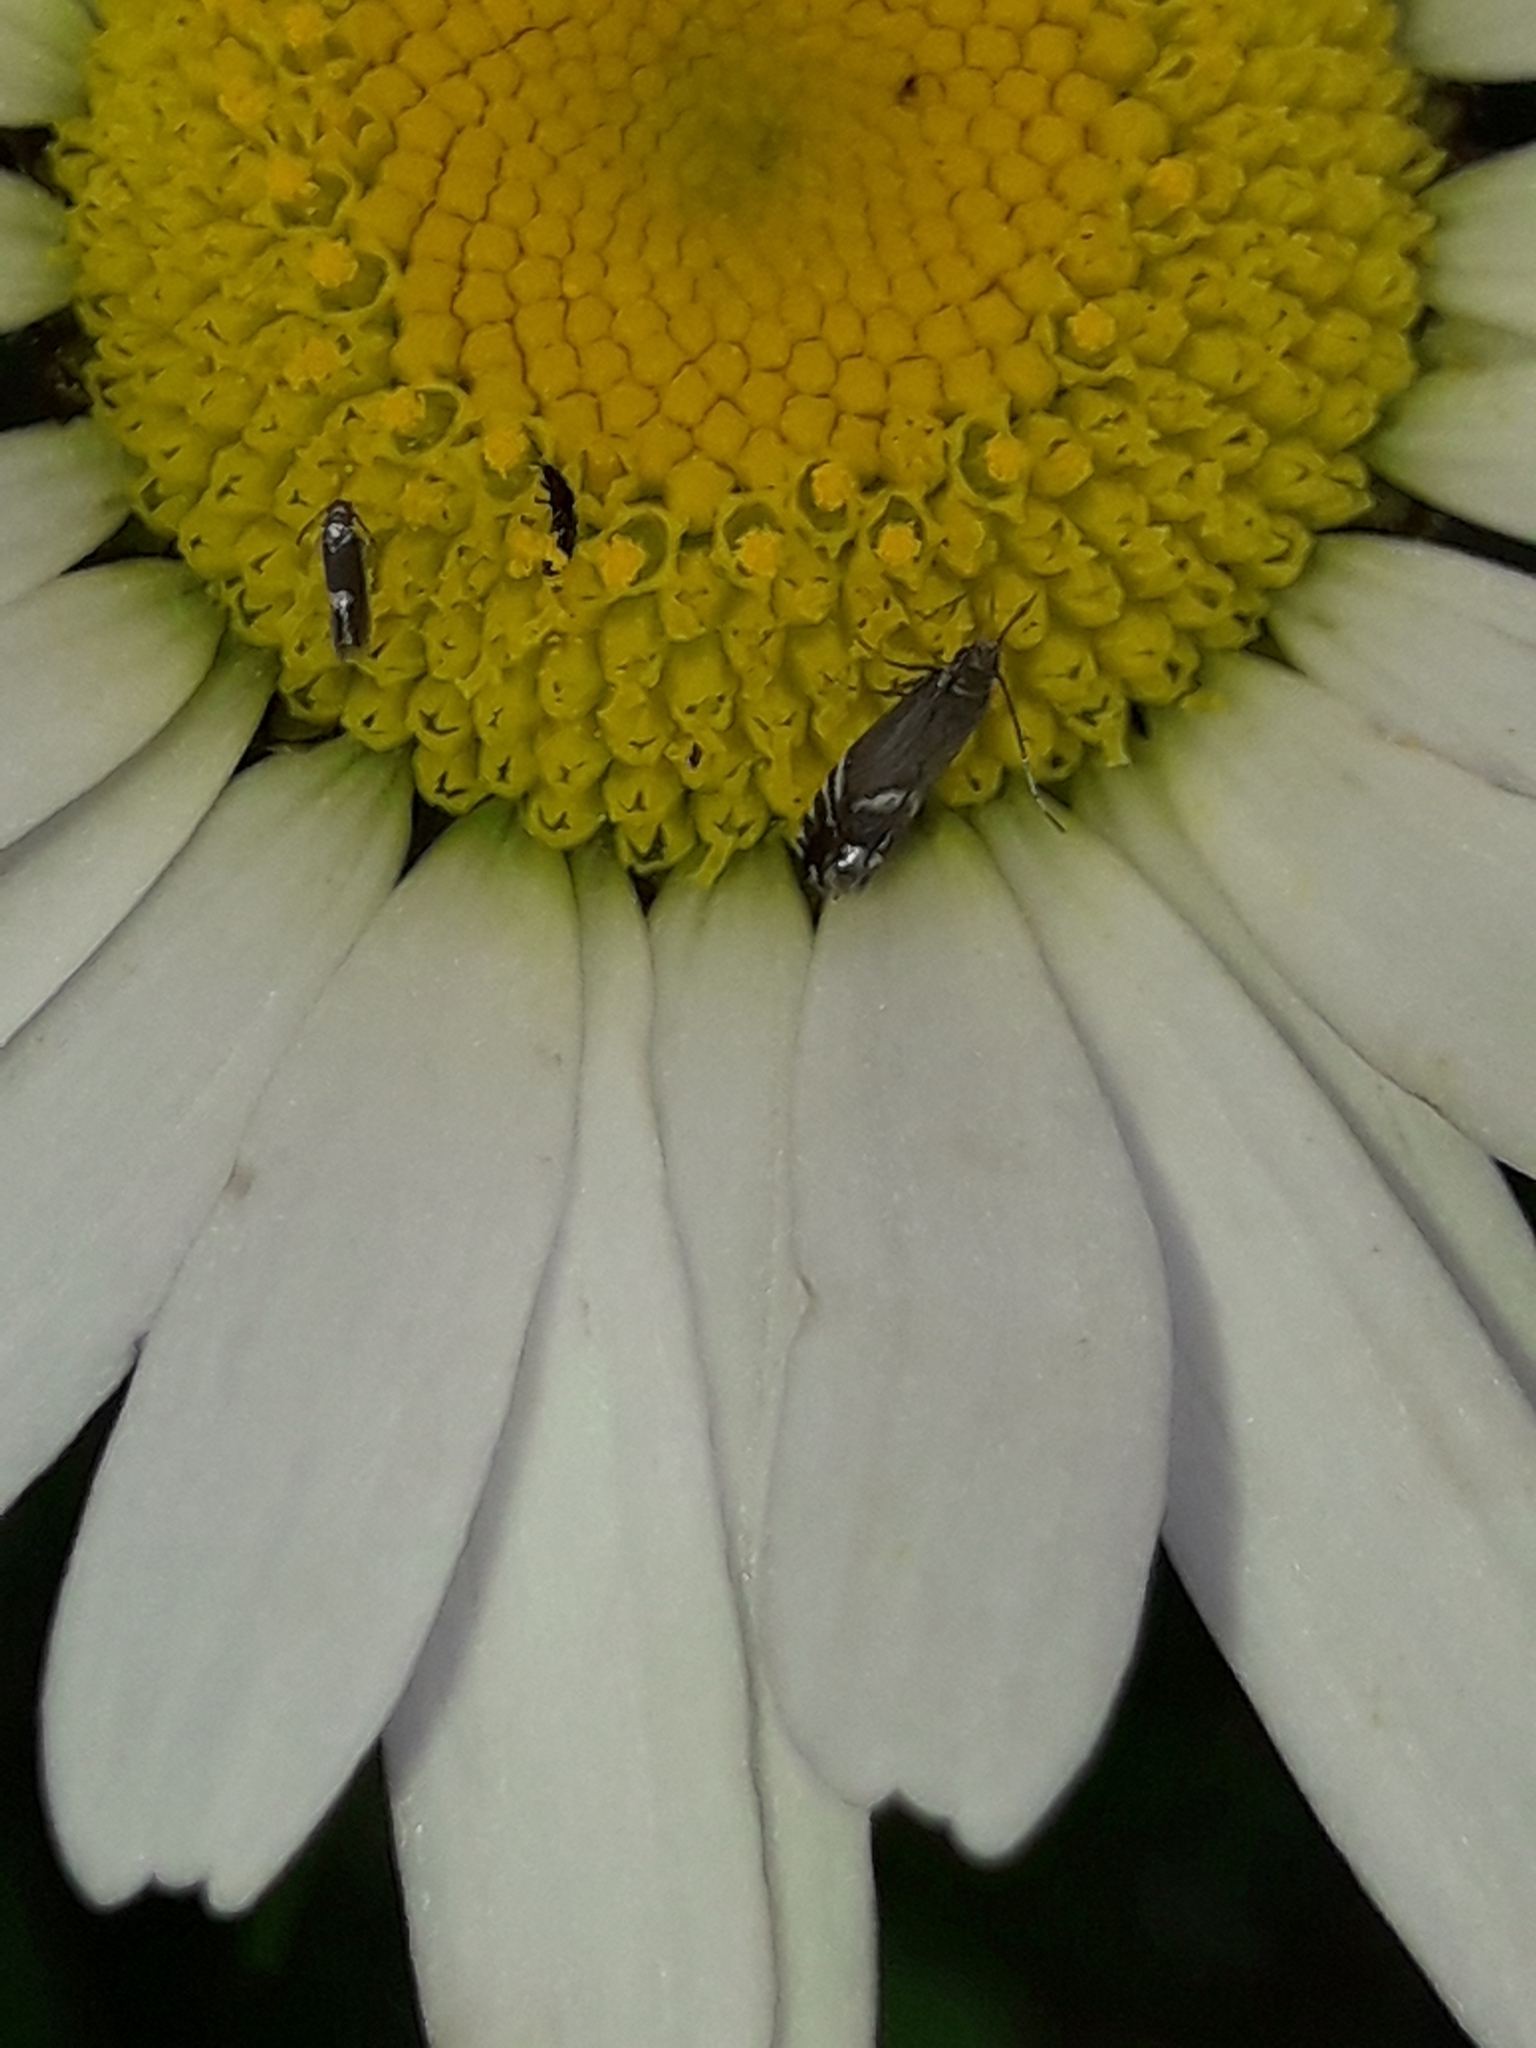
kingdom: Animalia
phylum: Arthropoda
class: Insecta
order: Lepidoptera
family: Glyphipterigidae
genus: Glyphipterix
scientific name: Glyphipterix simpliciella
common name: Cocksfoot moth
